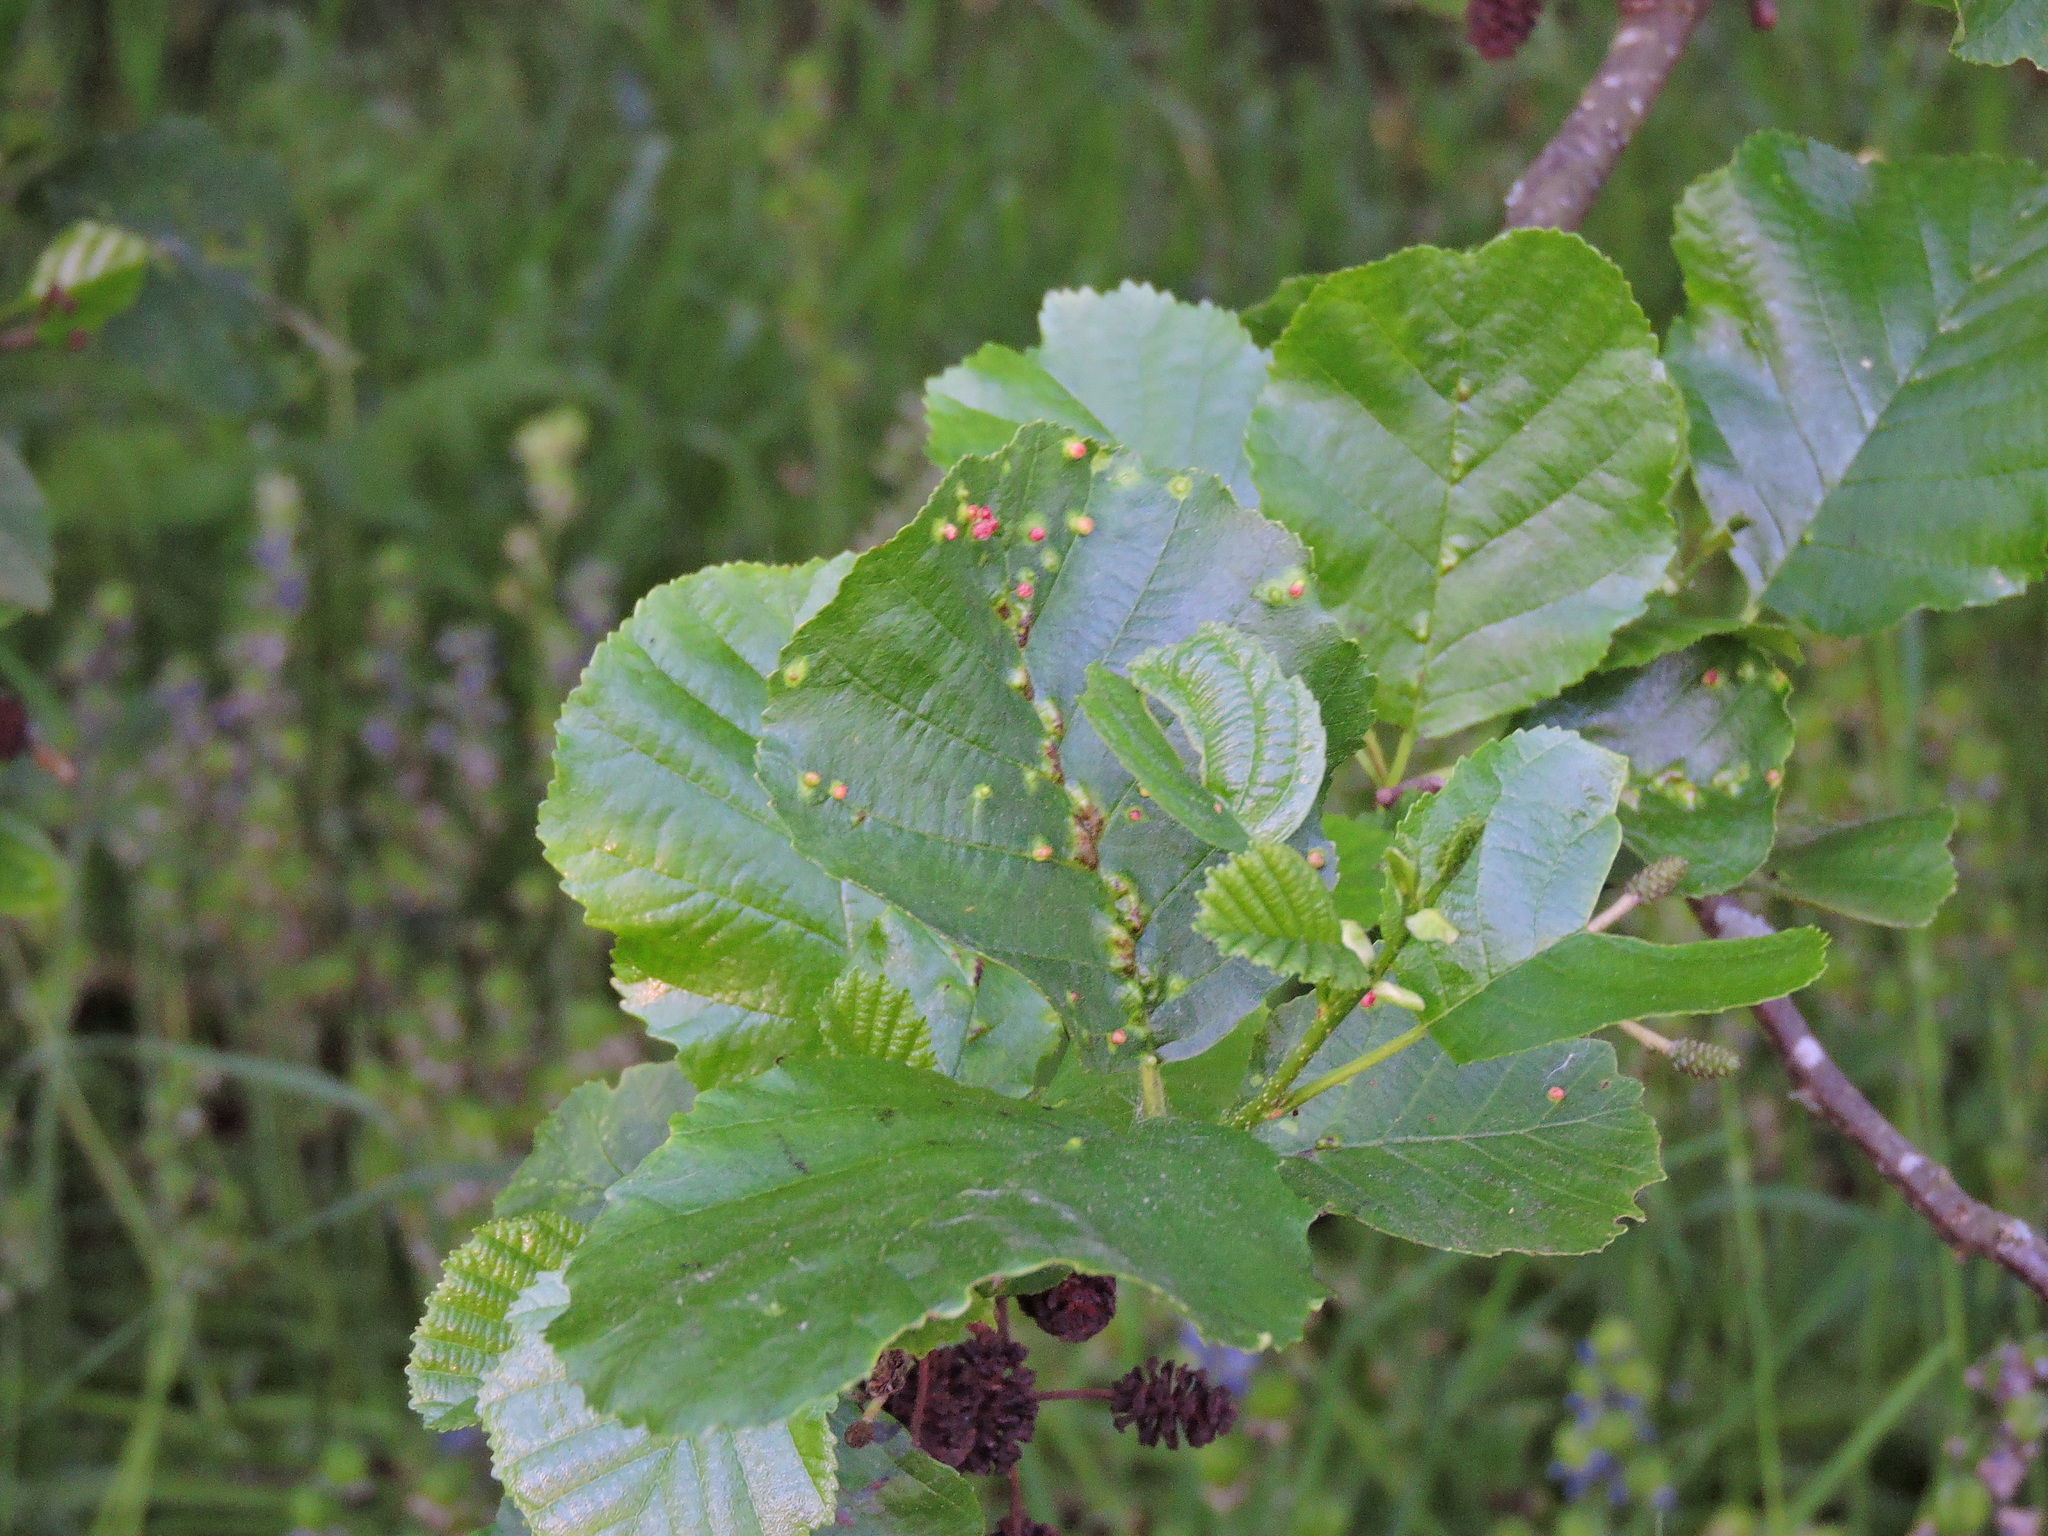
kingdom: Animalia
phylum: Arthropoda
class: Arachnida
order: Trombidiformes
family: Eriophyidae
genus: Eriophyes
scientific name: Eriophyes laevis
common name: Alder leaf gall mite
